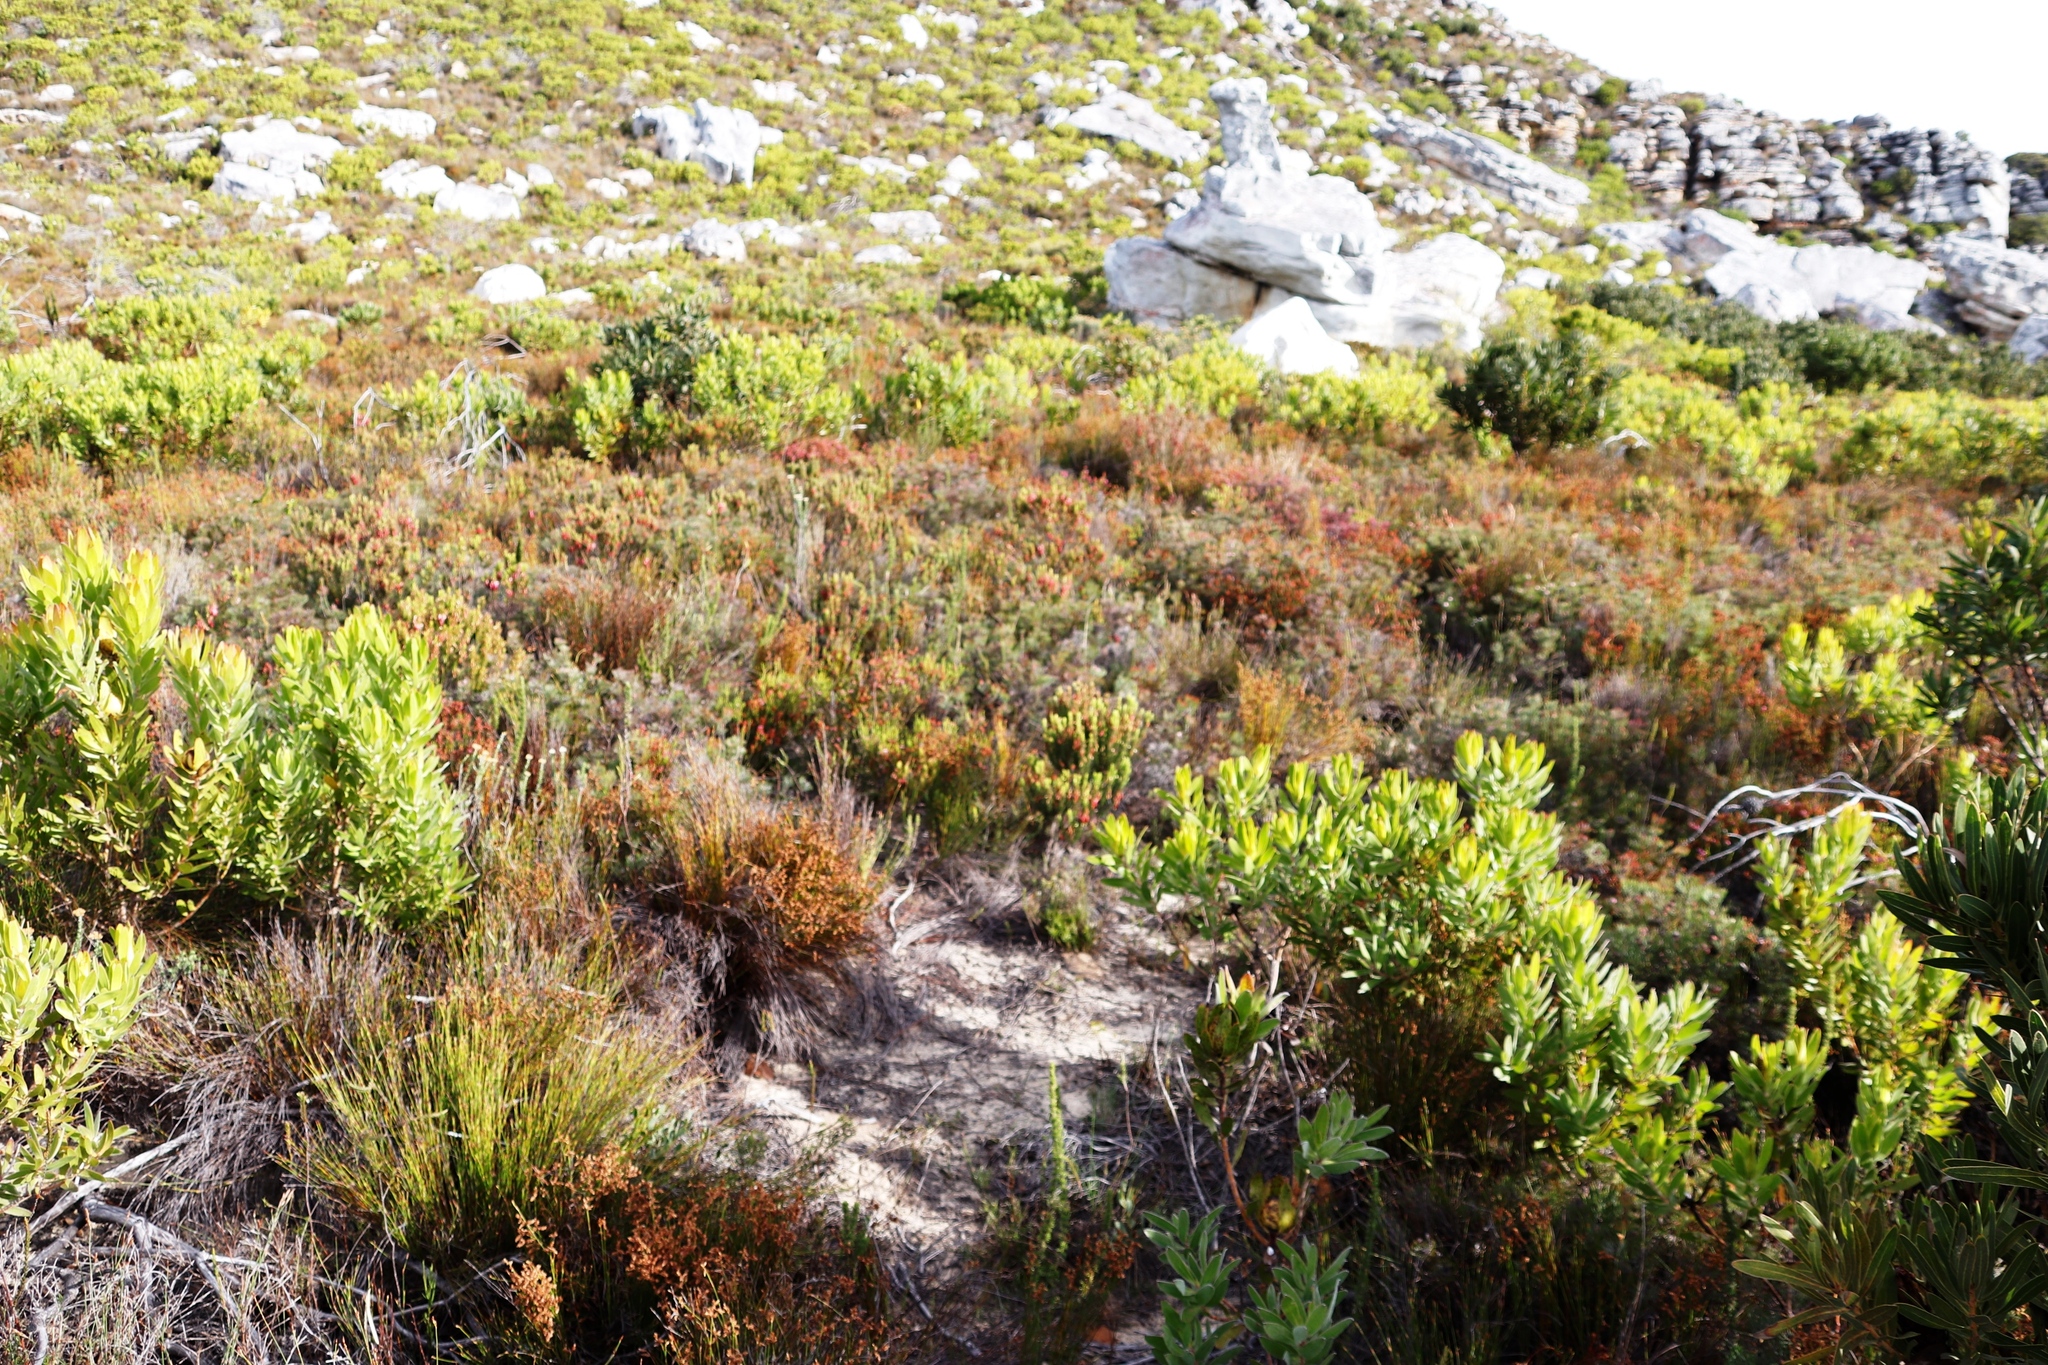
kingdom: Plantae
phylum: Tracheophyta
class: Magnoliopsida
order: Ericales
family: Ericaceae
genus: Erica
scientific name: Erica pulchella
